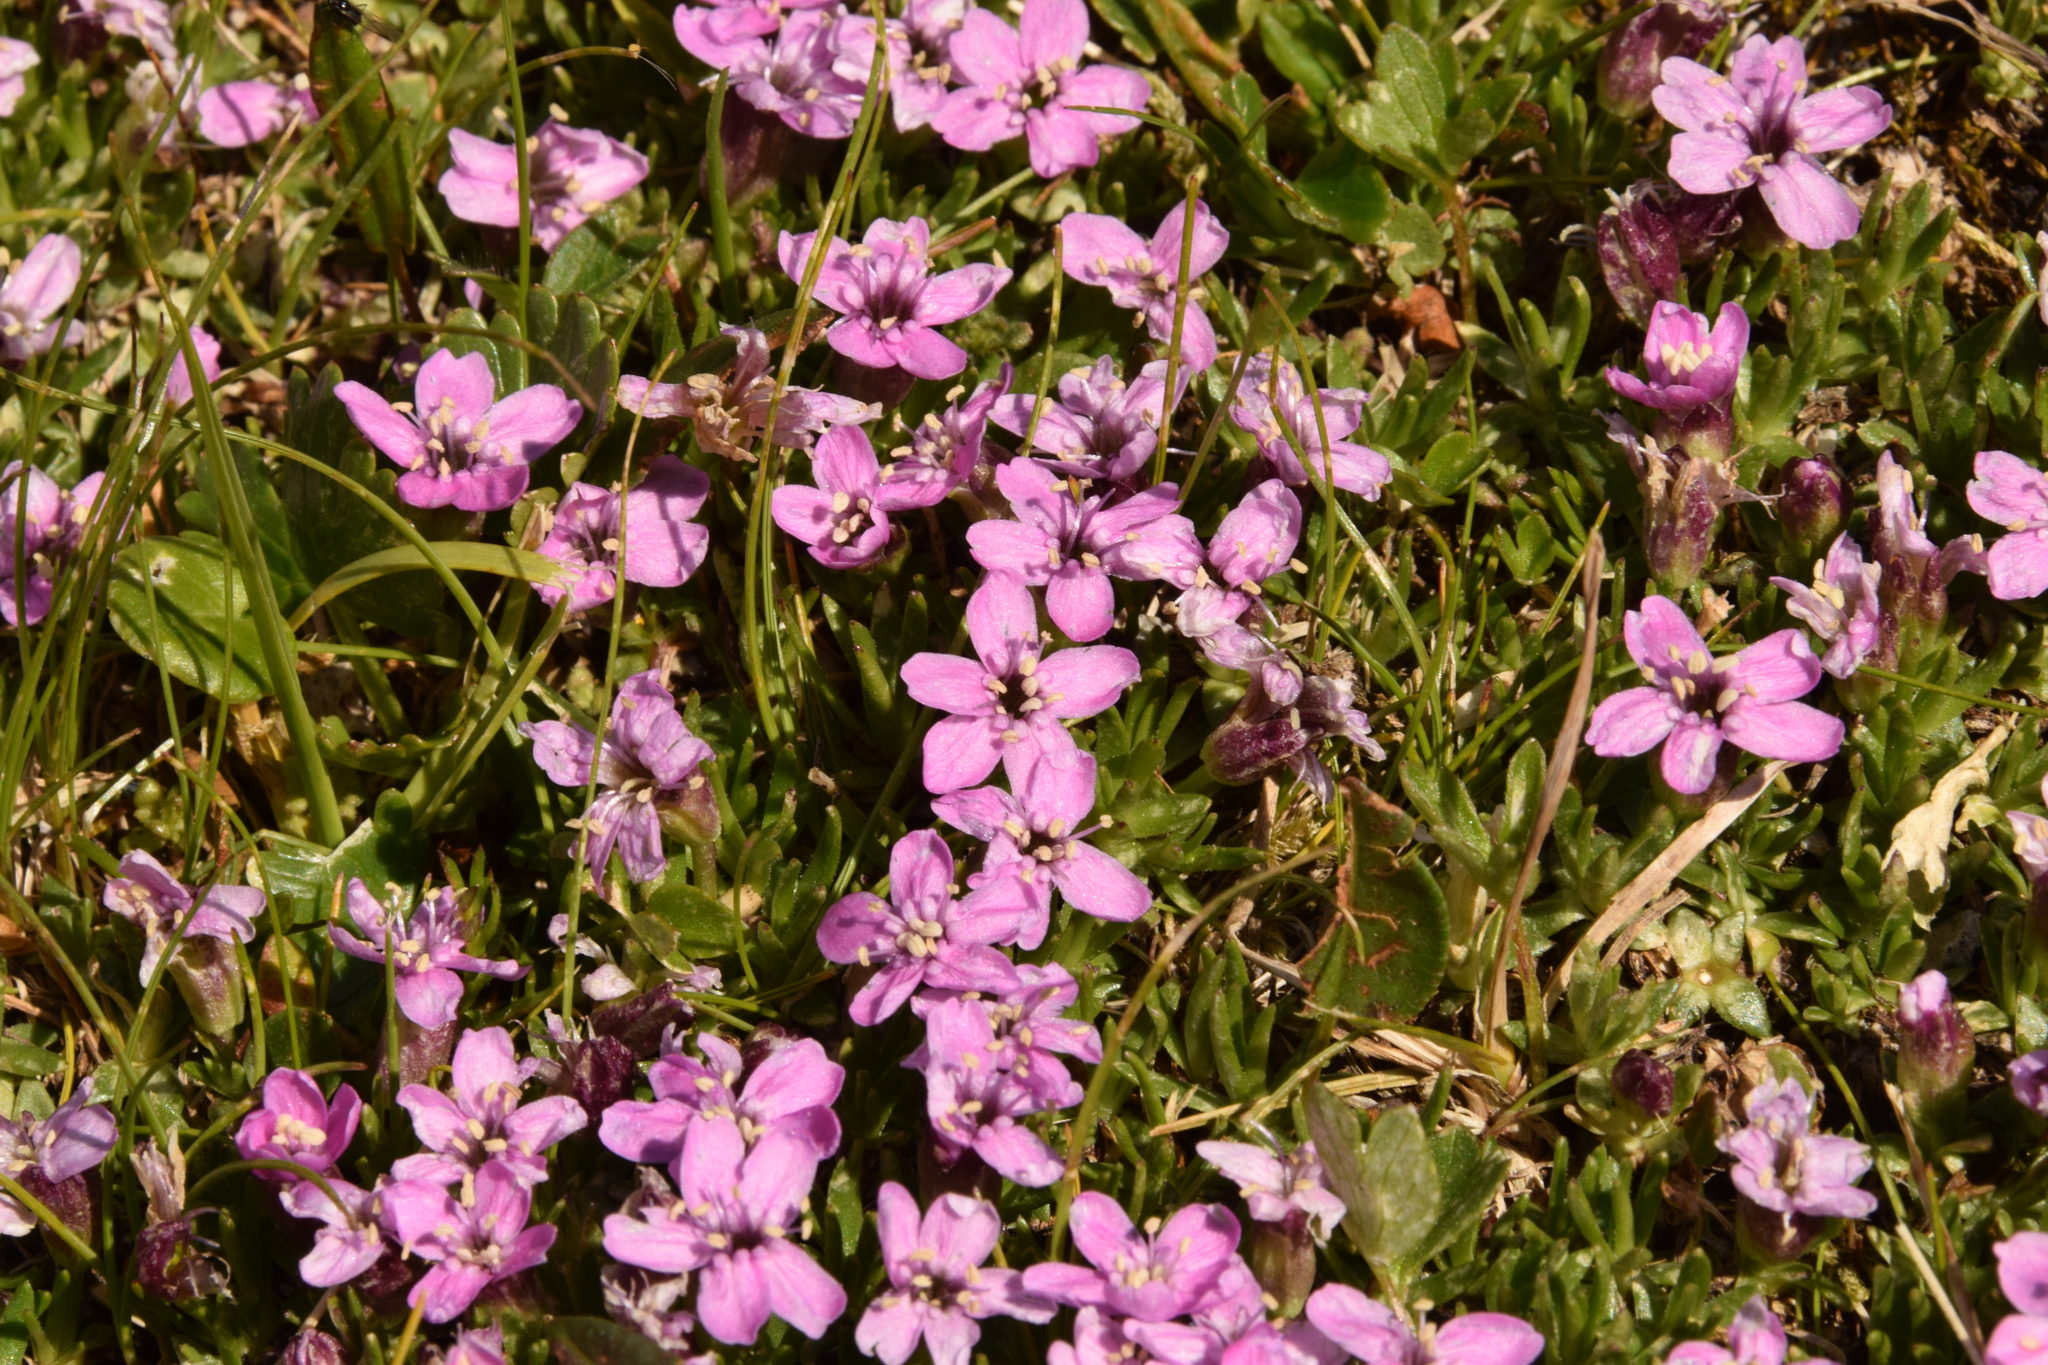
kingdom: Plantae
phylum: Tracheophyta
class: Magnoliopsida
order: Caryophyllales
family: Caryophyllaceae
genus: Silene
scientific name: Silene acaulis
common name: Moss campion
